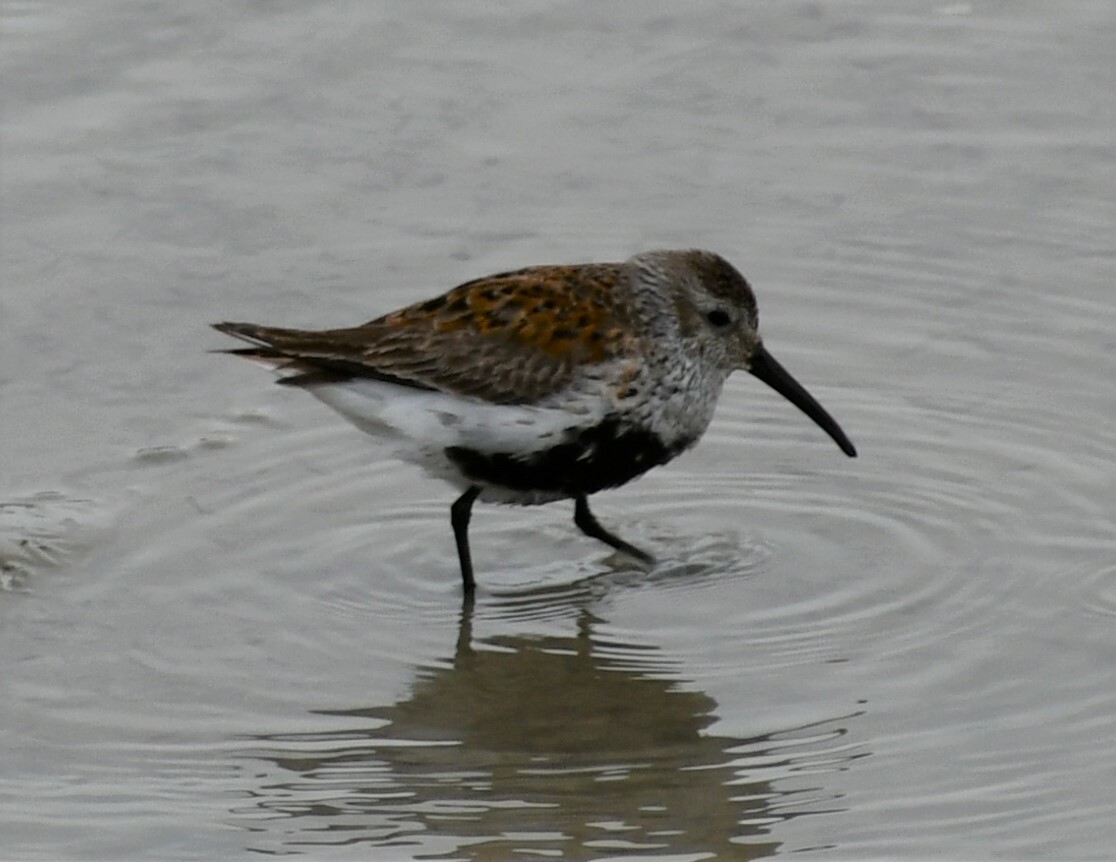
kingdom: Animalia
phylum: Chordata
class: Aves
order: Charadriiformes
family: Scolopacidae
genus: Calidris
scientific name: Calidris alpina
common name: Dunlin
